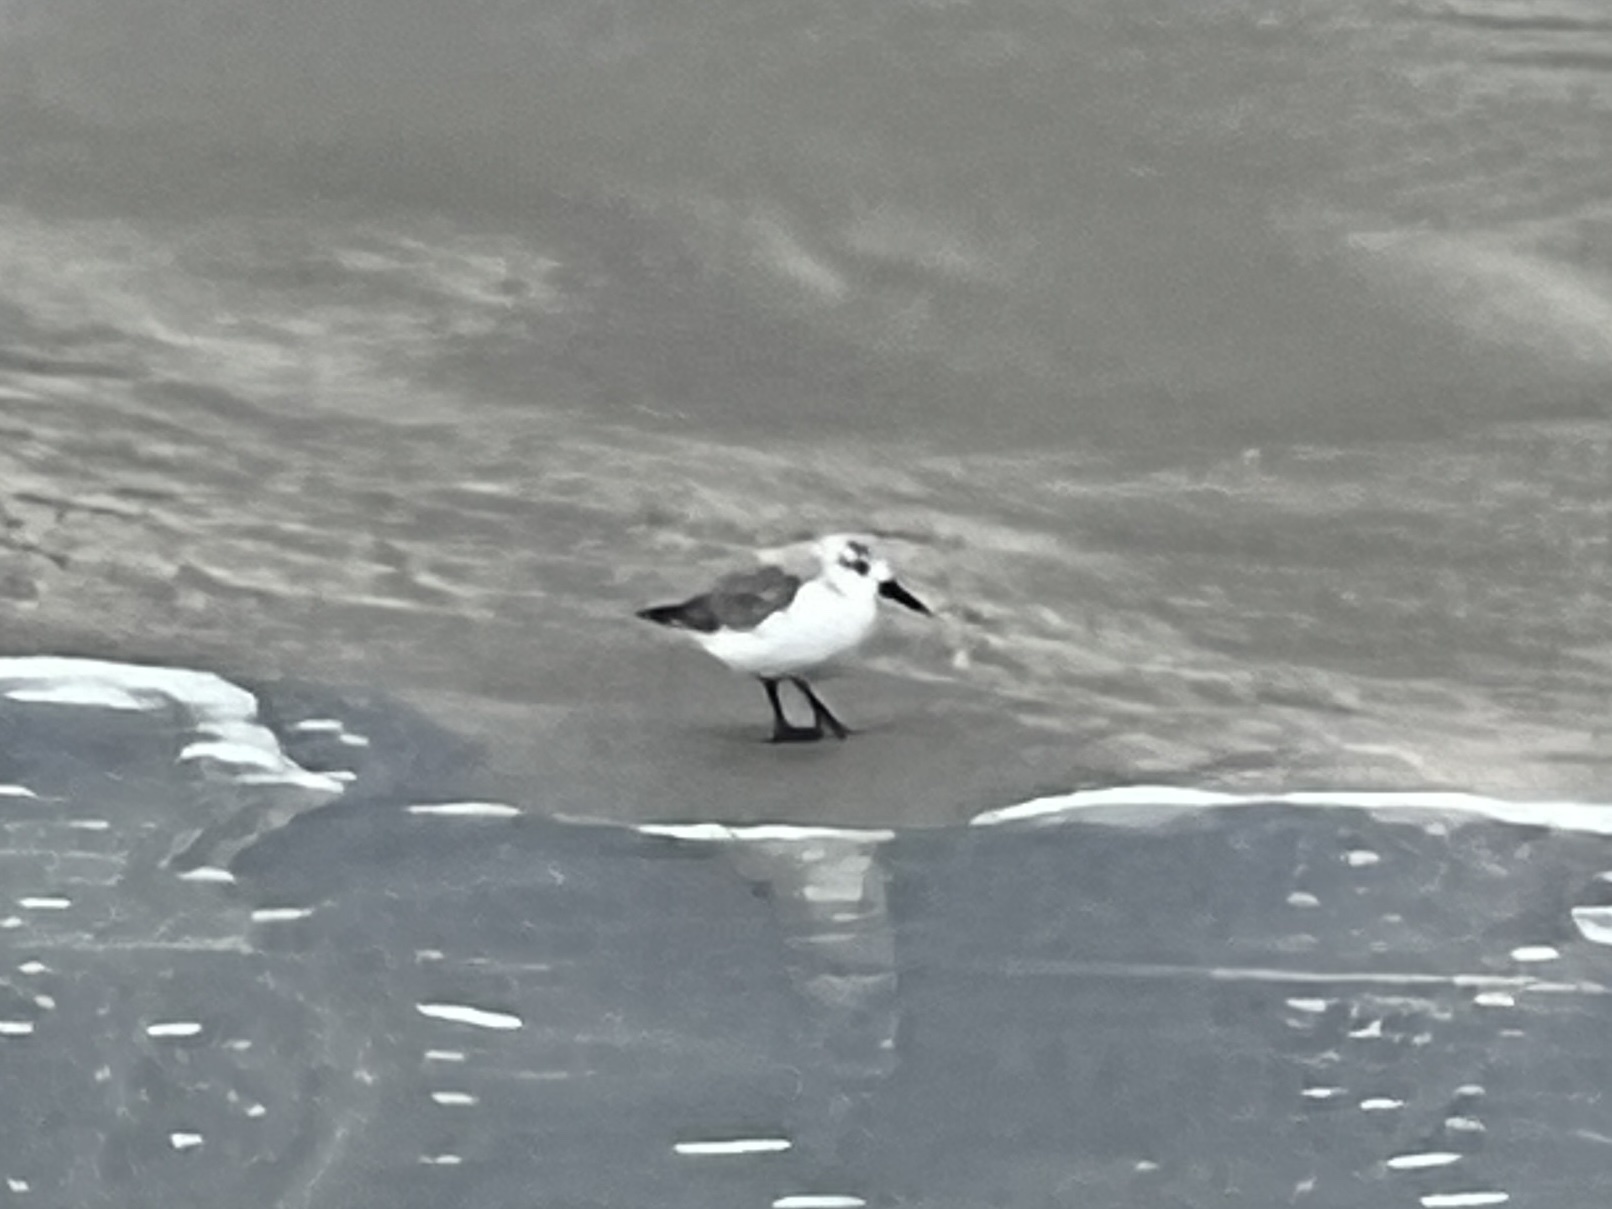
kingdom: Animalia
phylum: Chordata
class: Aves
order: Charadriiformes
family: Scolopacidae
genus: Calidris
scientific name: Calidris alba
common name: Sanderling
